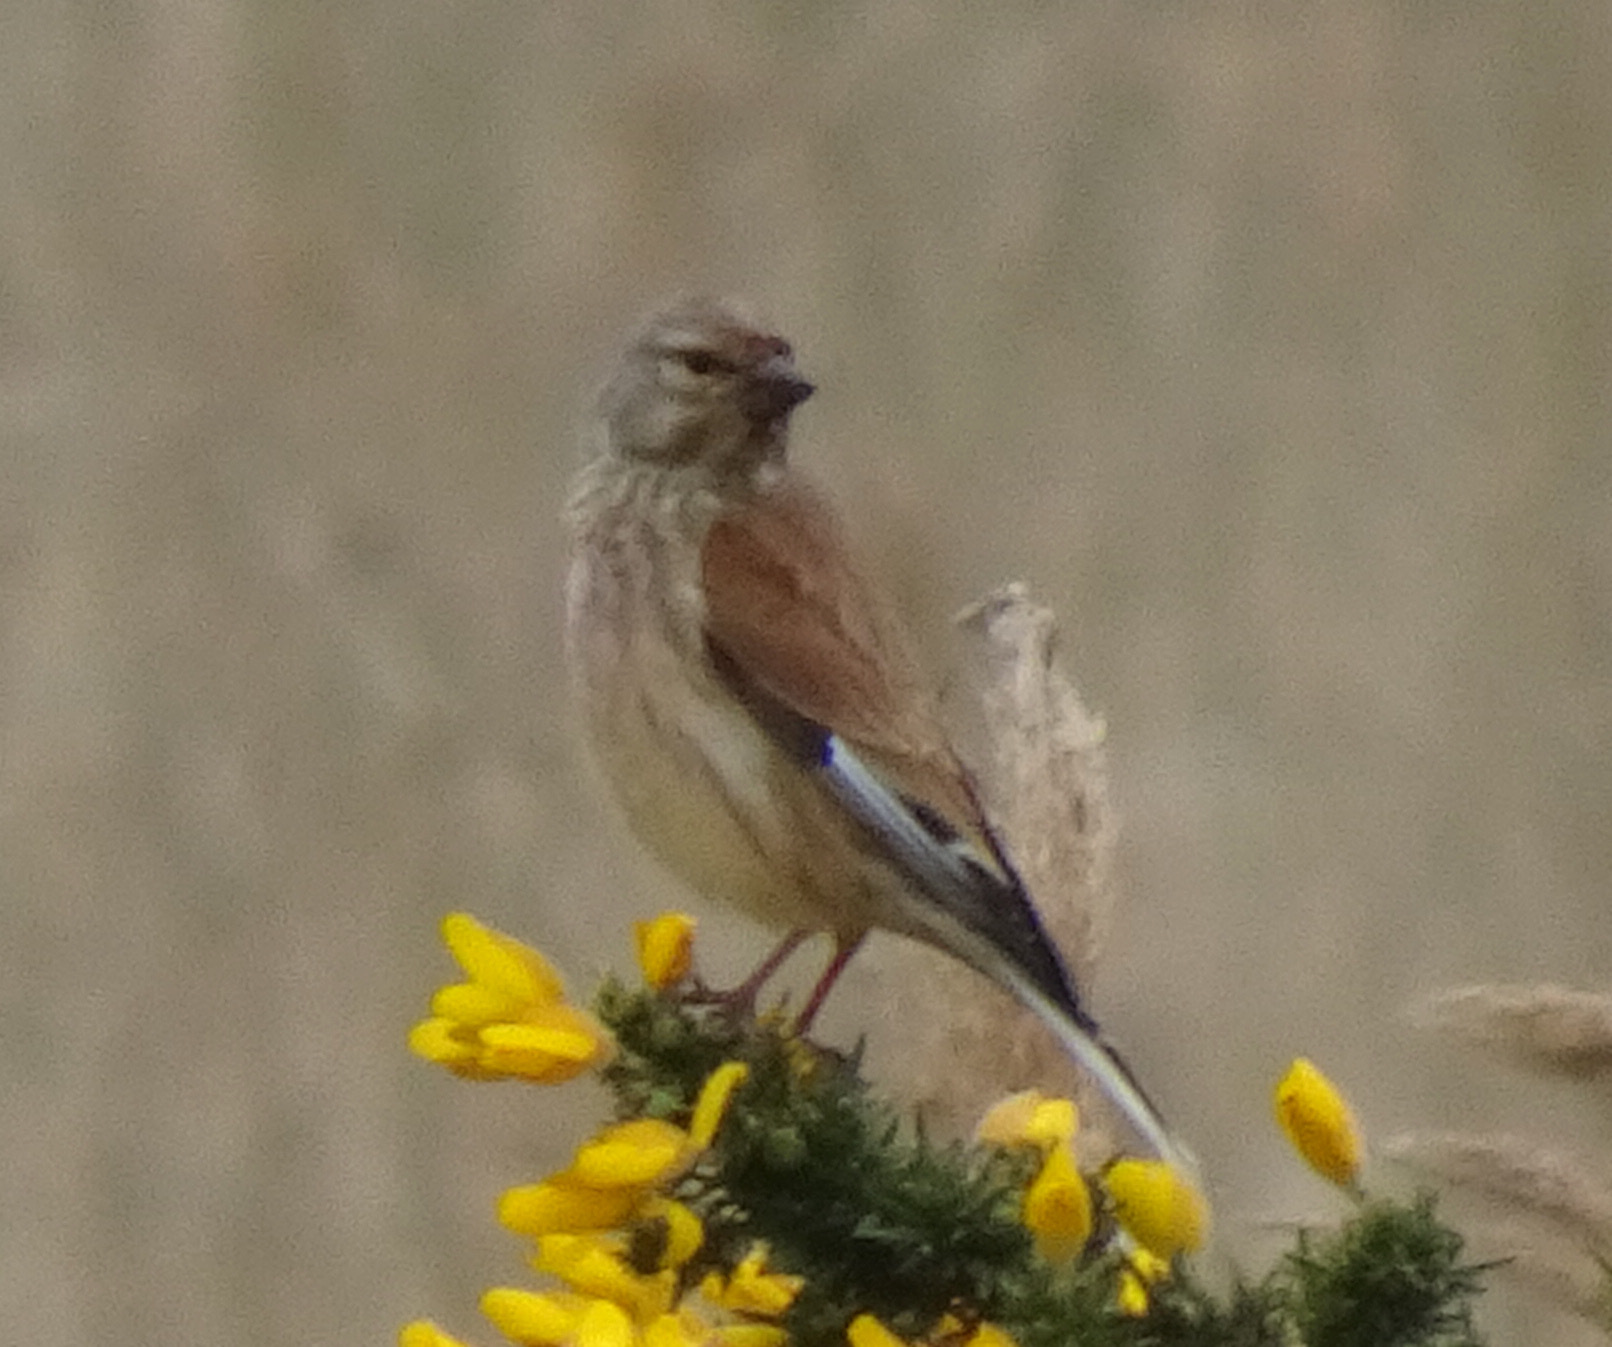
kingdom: Animalia
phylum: Chordata
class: Aves
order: Passeriformes
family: Fringillidae
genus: Linaria
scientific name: Linaria cannabina
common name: Common linnet
